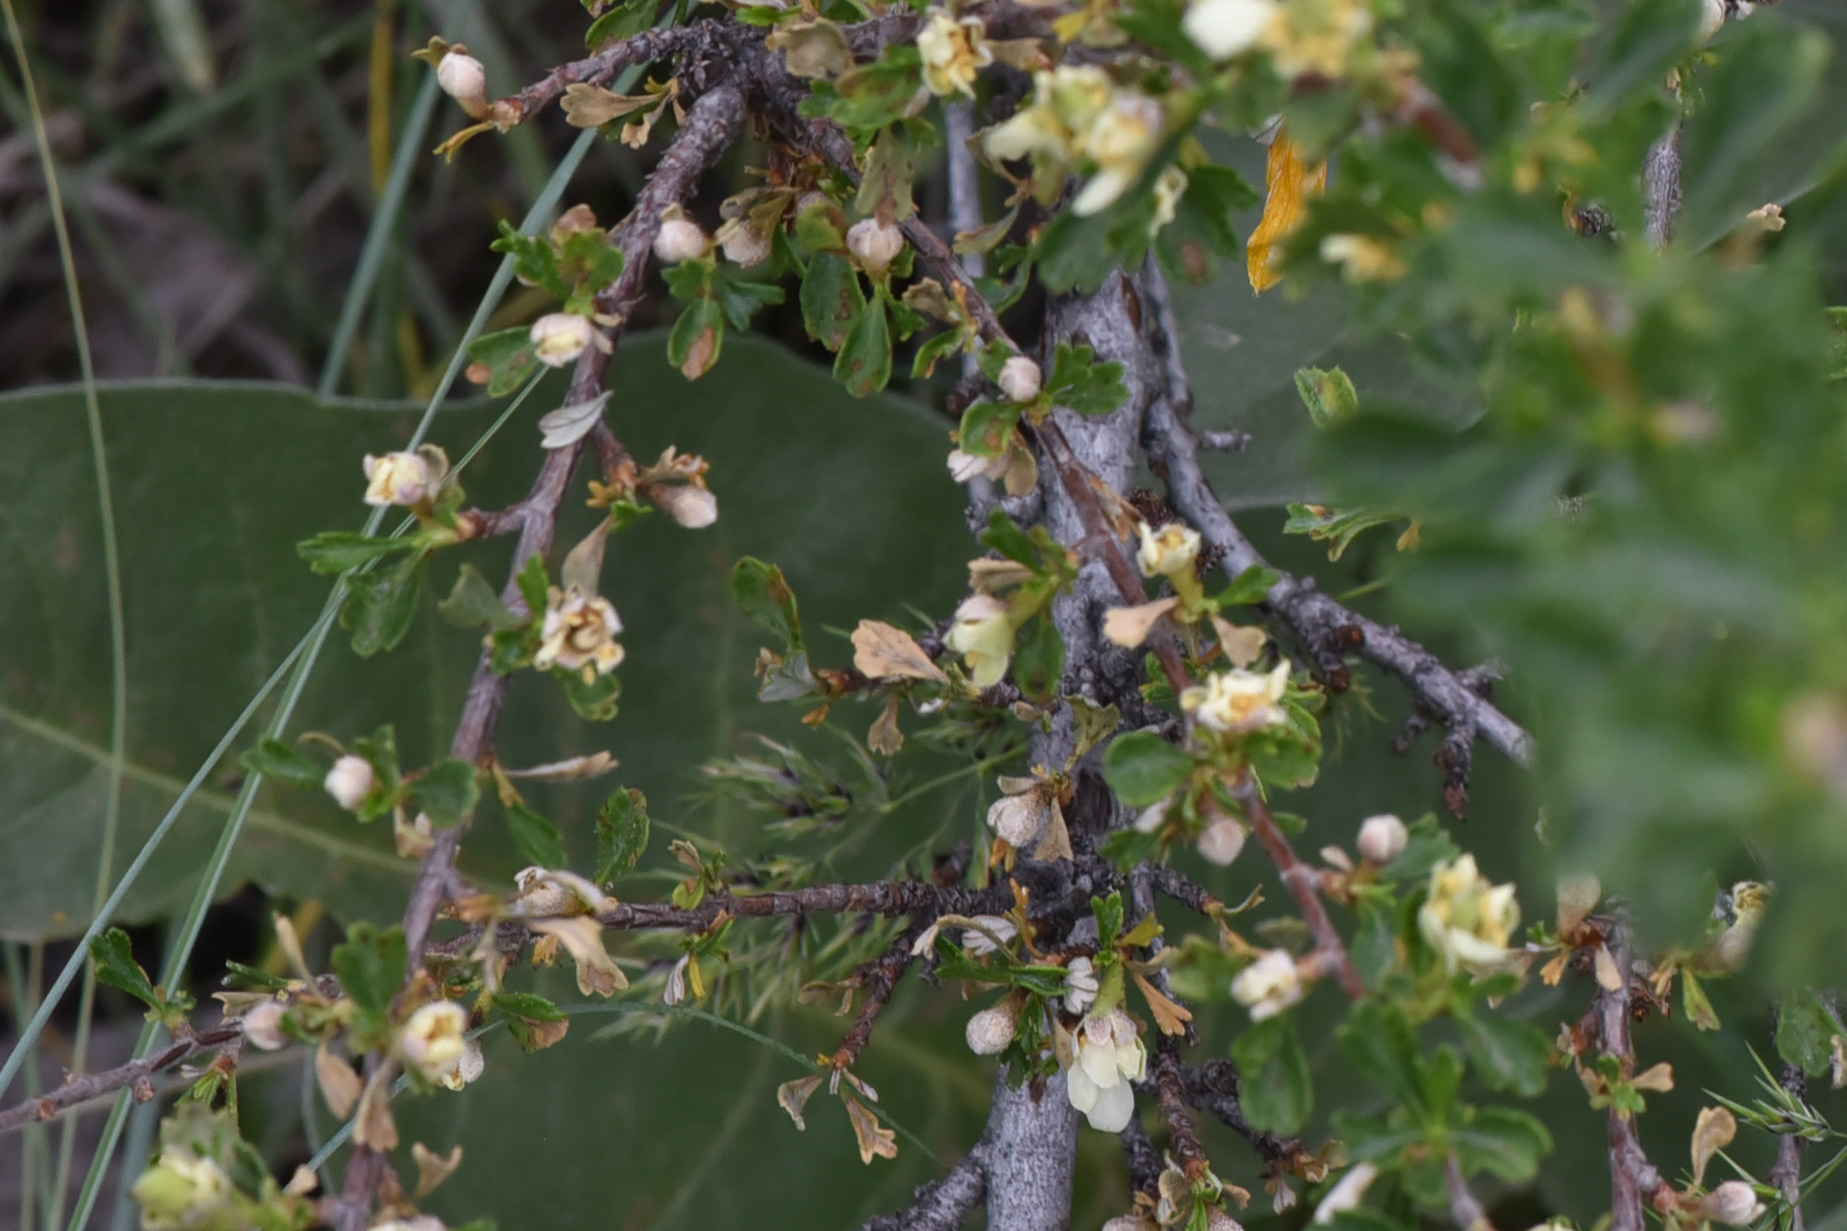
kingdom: Plantae
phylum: Tracheophyta
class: Magnoliopsida
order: Rosales
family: Rosaceae
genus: Purshia
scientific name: Purshia tridentata
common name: Antelope bitterbrush
